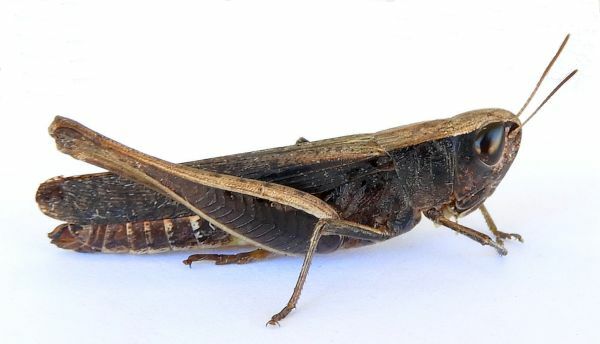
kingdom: Animalia
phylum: Arthropoda
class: Insecta
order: Orthoptera
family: Acrididae
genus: Amblytropidia
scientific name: Amblytropidia mysteca
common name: Brown winter grasshopper
